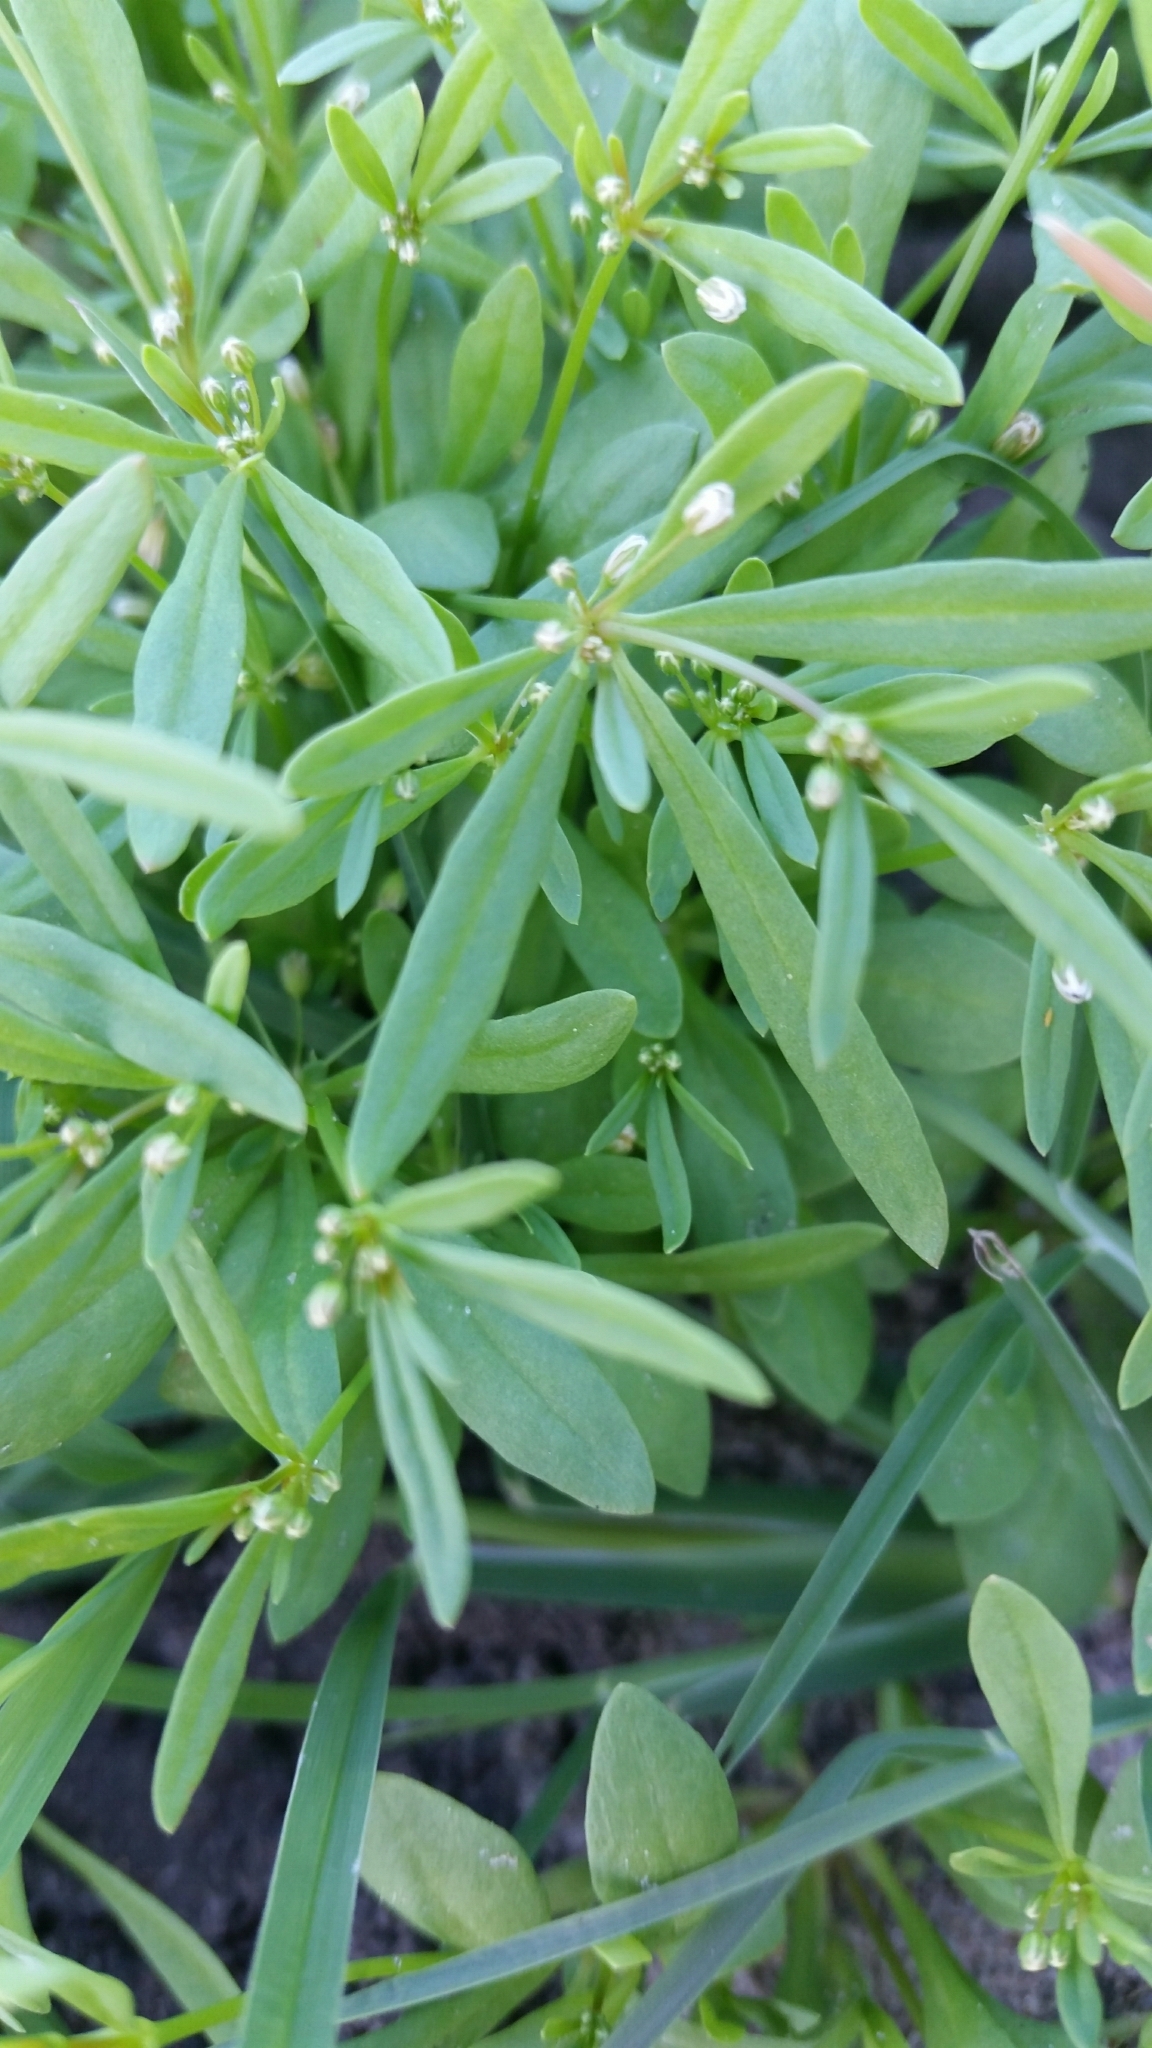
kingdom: Plantae
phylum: Tracheophyta
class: Magnoliopsida
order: Caryophyllales
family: Molluginaceae
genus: Mollugo
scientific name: Mollugo verticillata
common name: Green carpetweed
